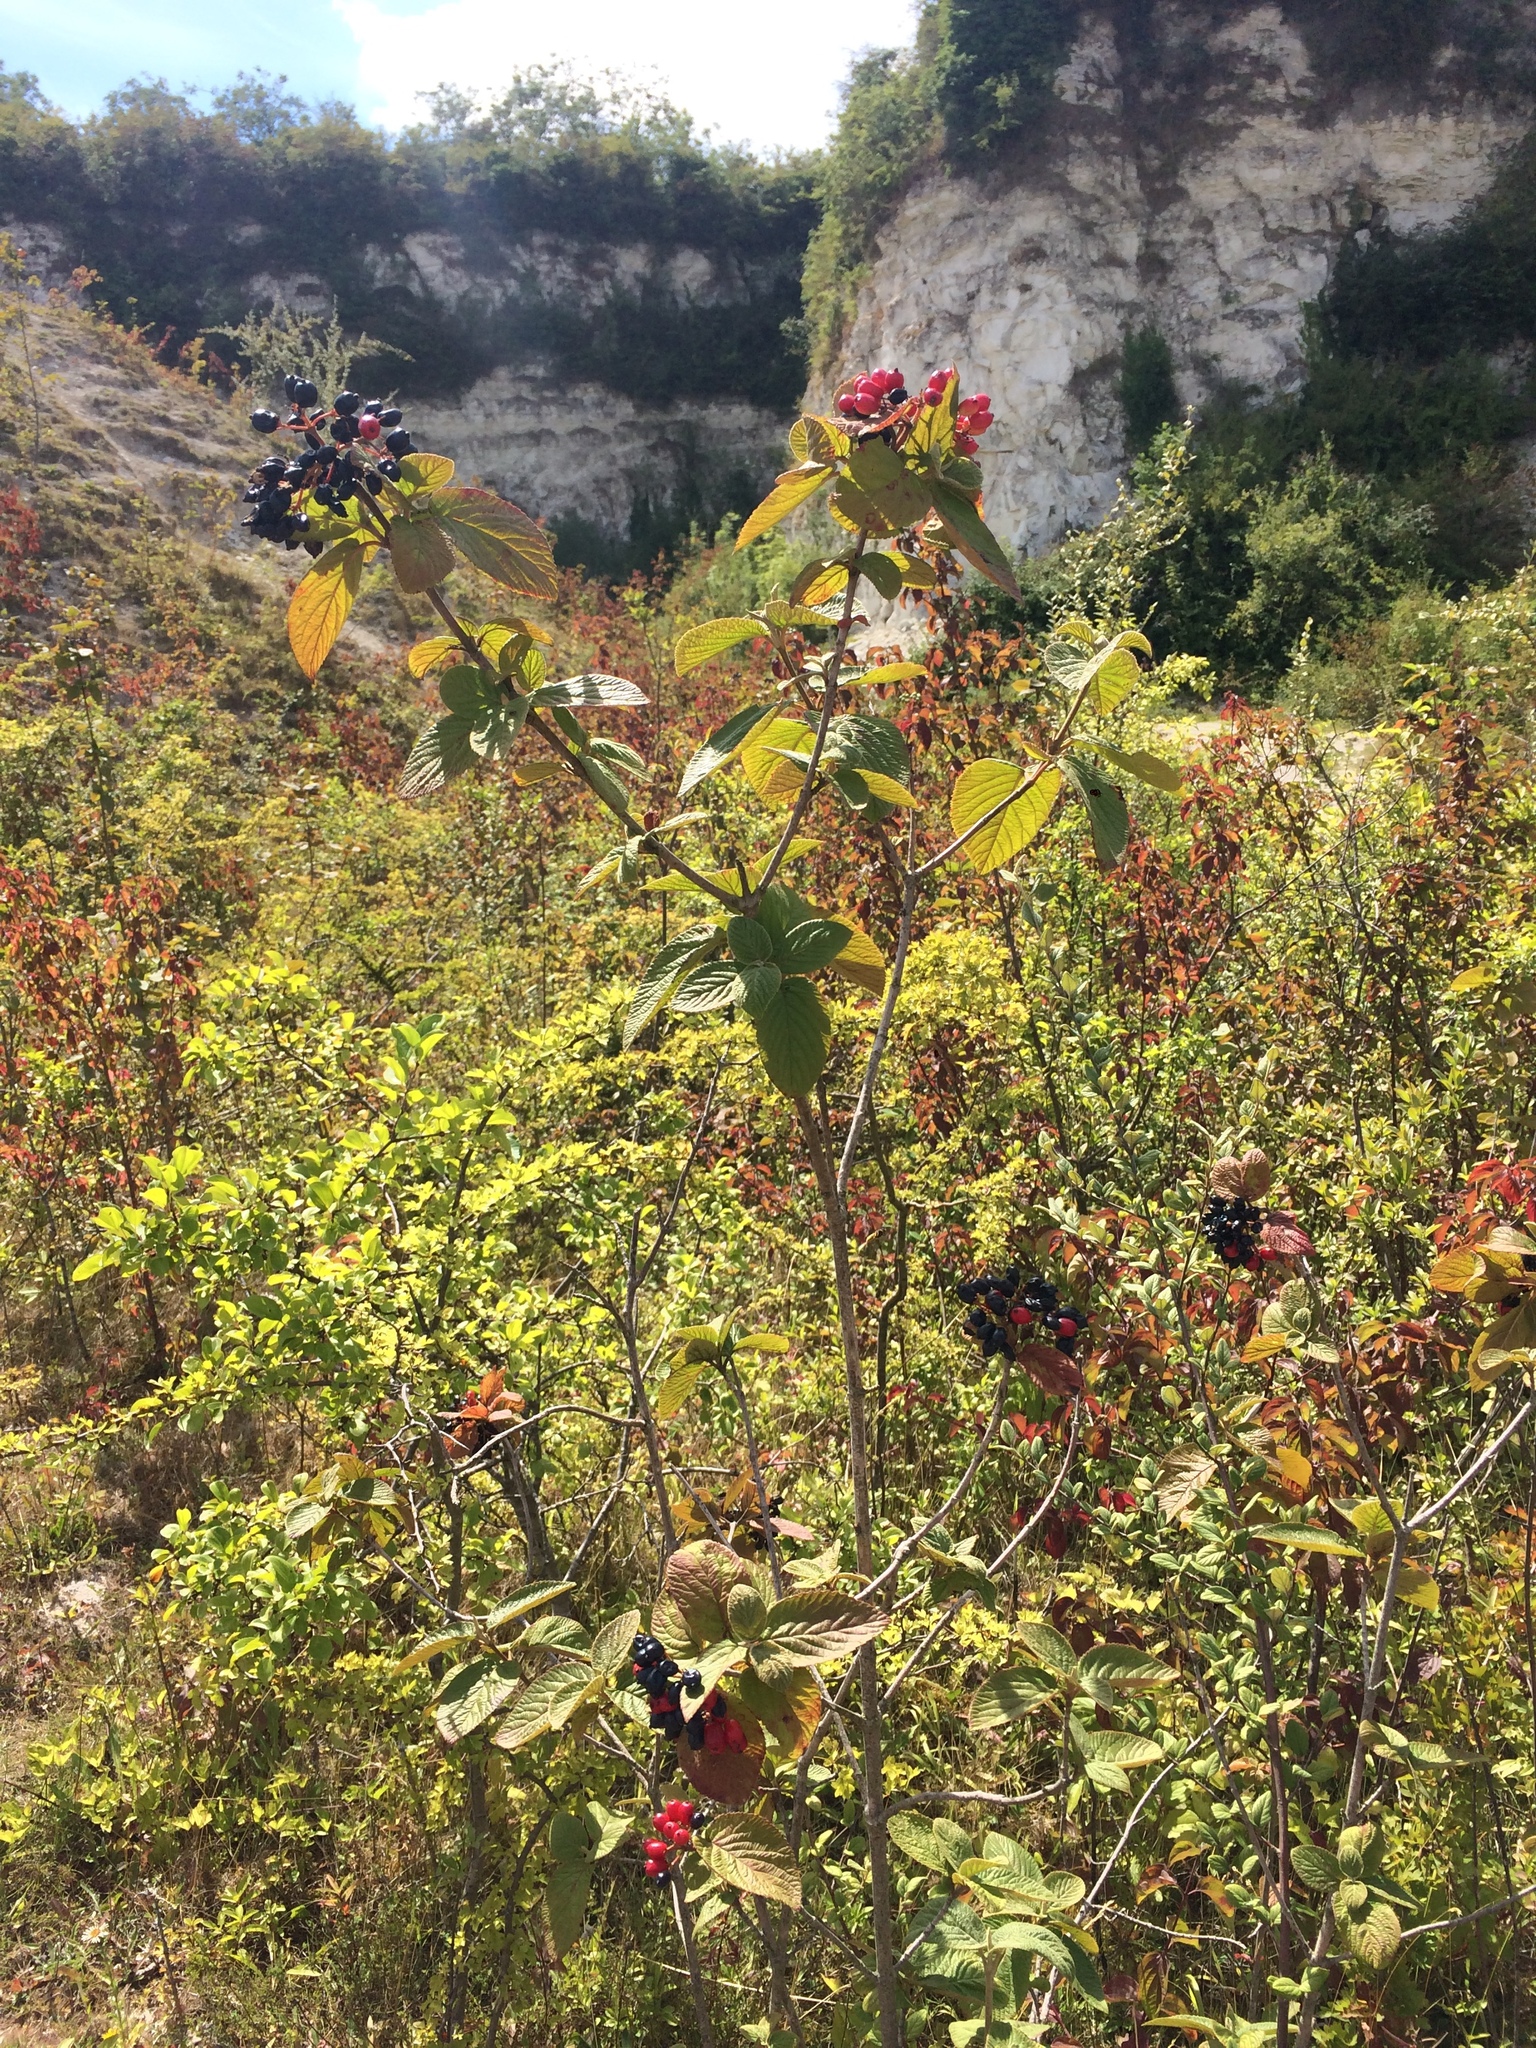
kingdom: Plantae
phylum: Tracheophyta
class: Magnoliopsida
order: Dipsacales
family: Viburnaceae
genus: Viburnum
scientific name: Viburnum lantana
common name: Wayfaring tree
